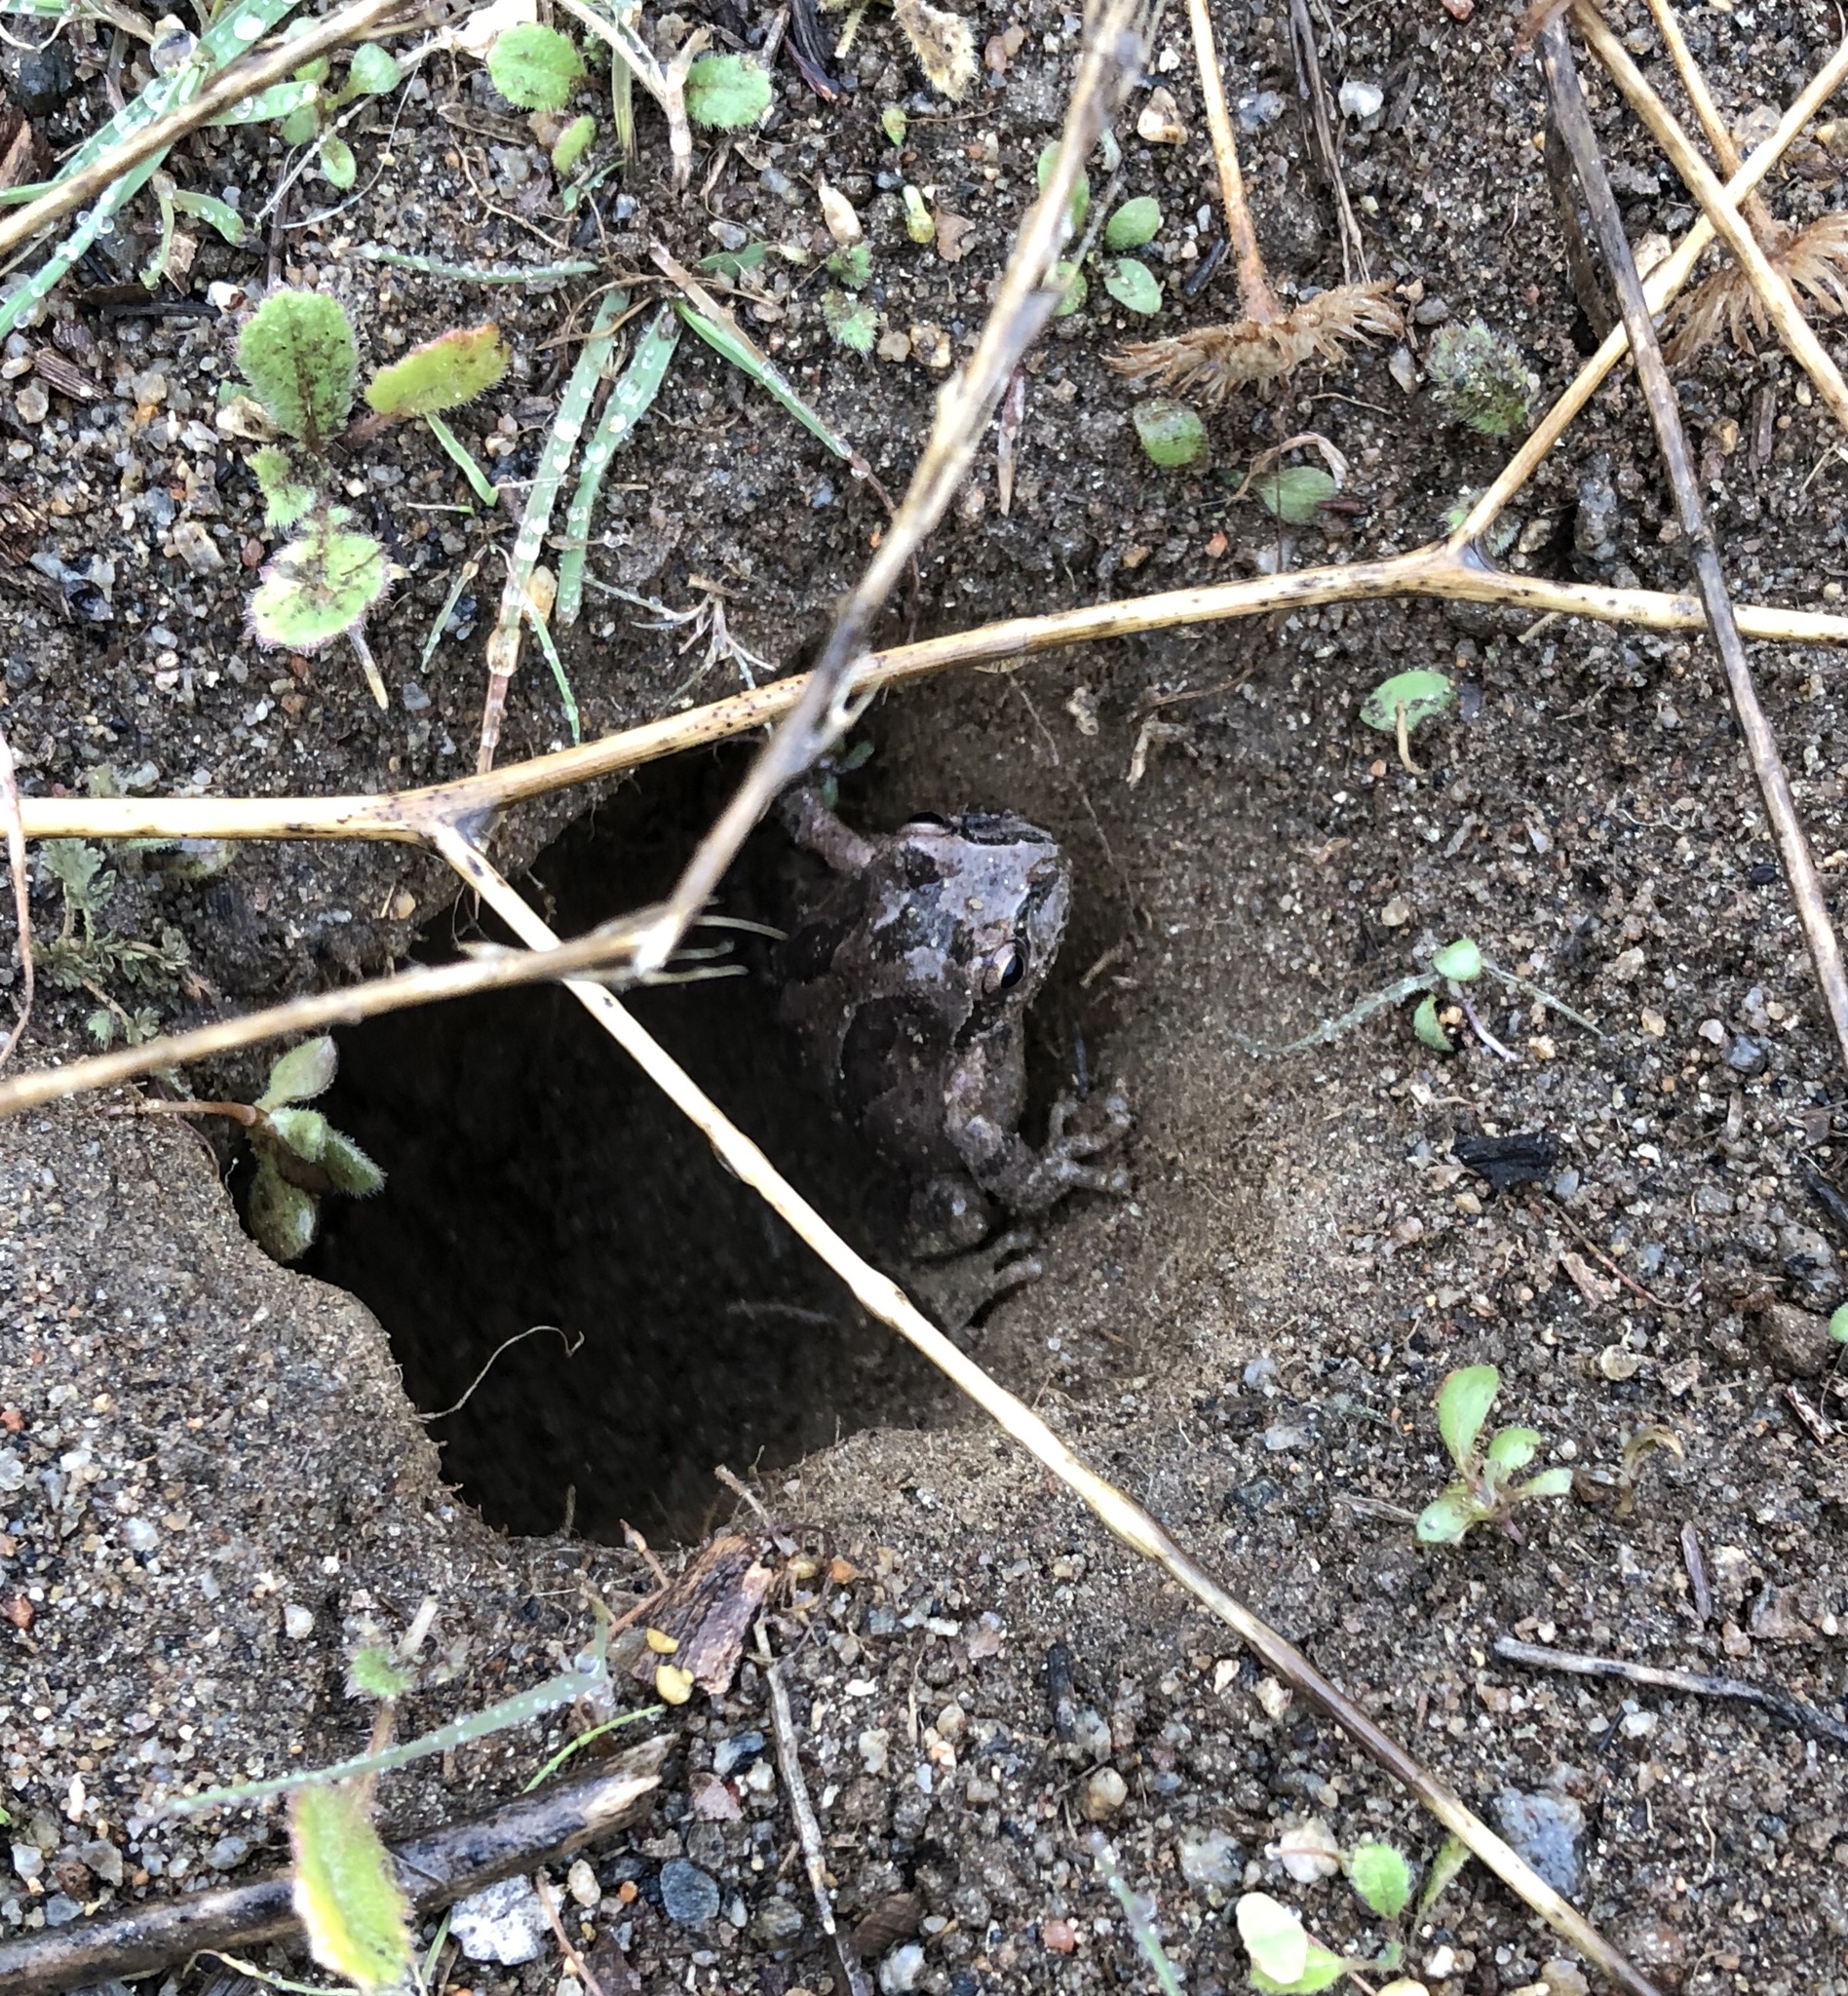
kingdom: Animalia
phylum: Chordata
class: Amphibia
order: Anura
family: Hylidae
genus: Pseudacris
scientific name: Pseudacris regilla
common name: Pacific chorus frog
